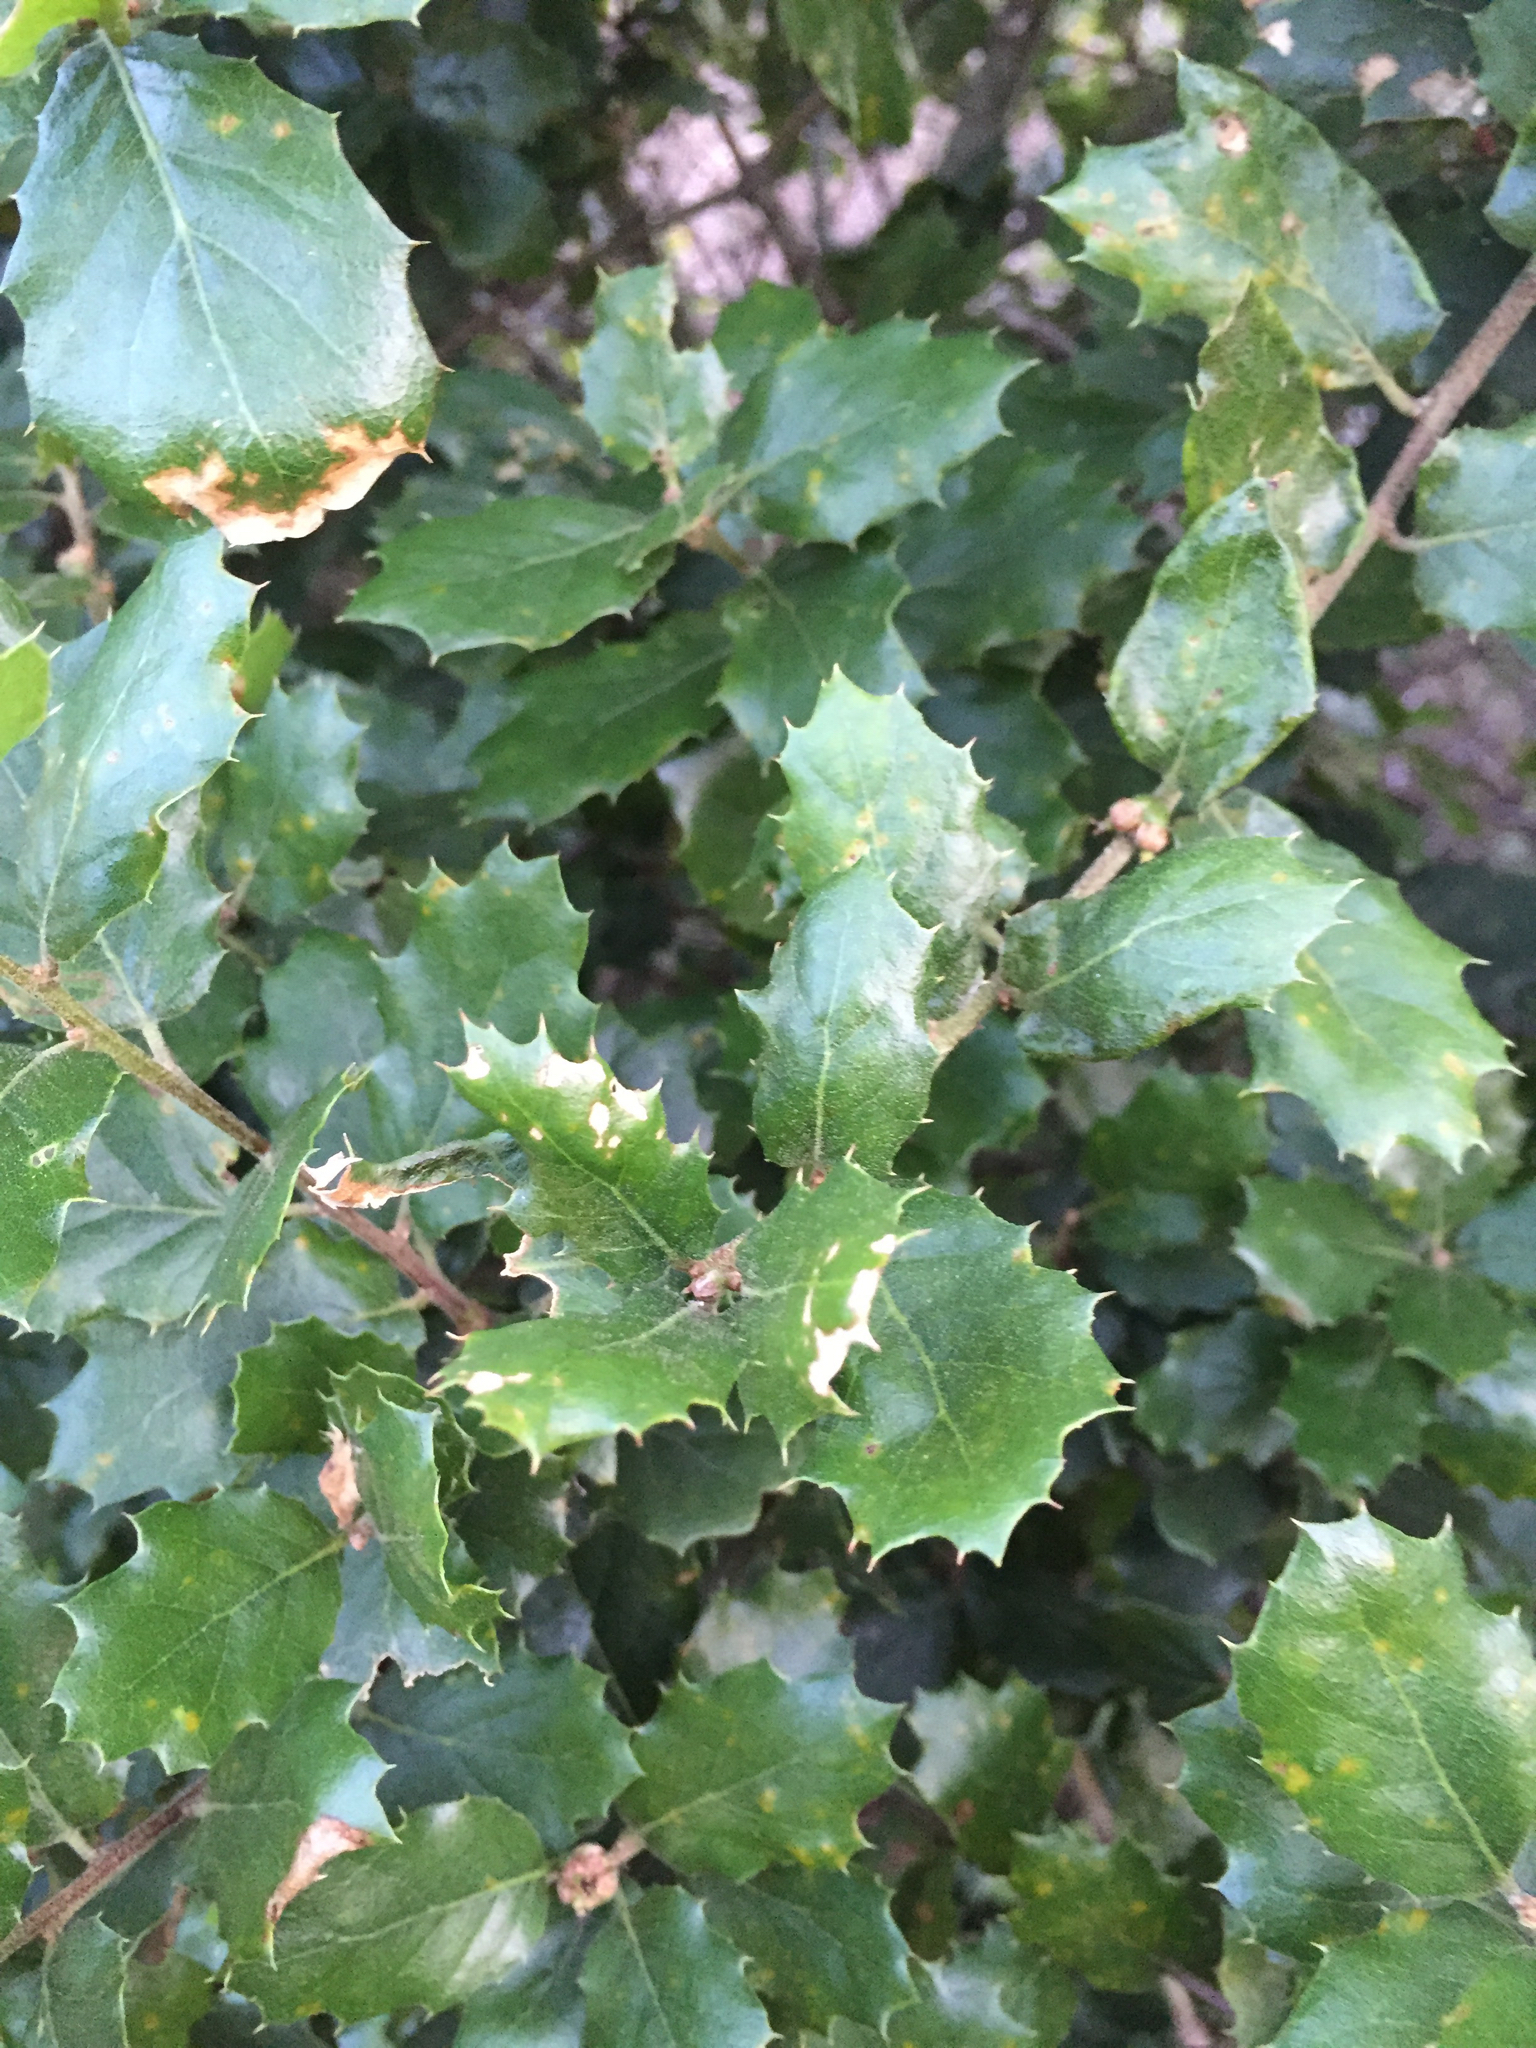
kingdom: Plantae
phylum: Tracheophyta
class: Magnoliopsida
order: Fagales
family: Fagaceae
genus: Quercus
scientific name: Quercus agrifolia
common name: California live oak
